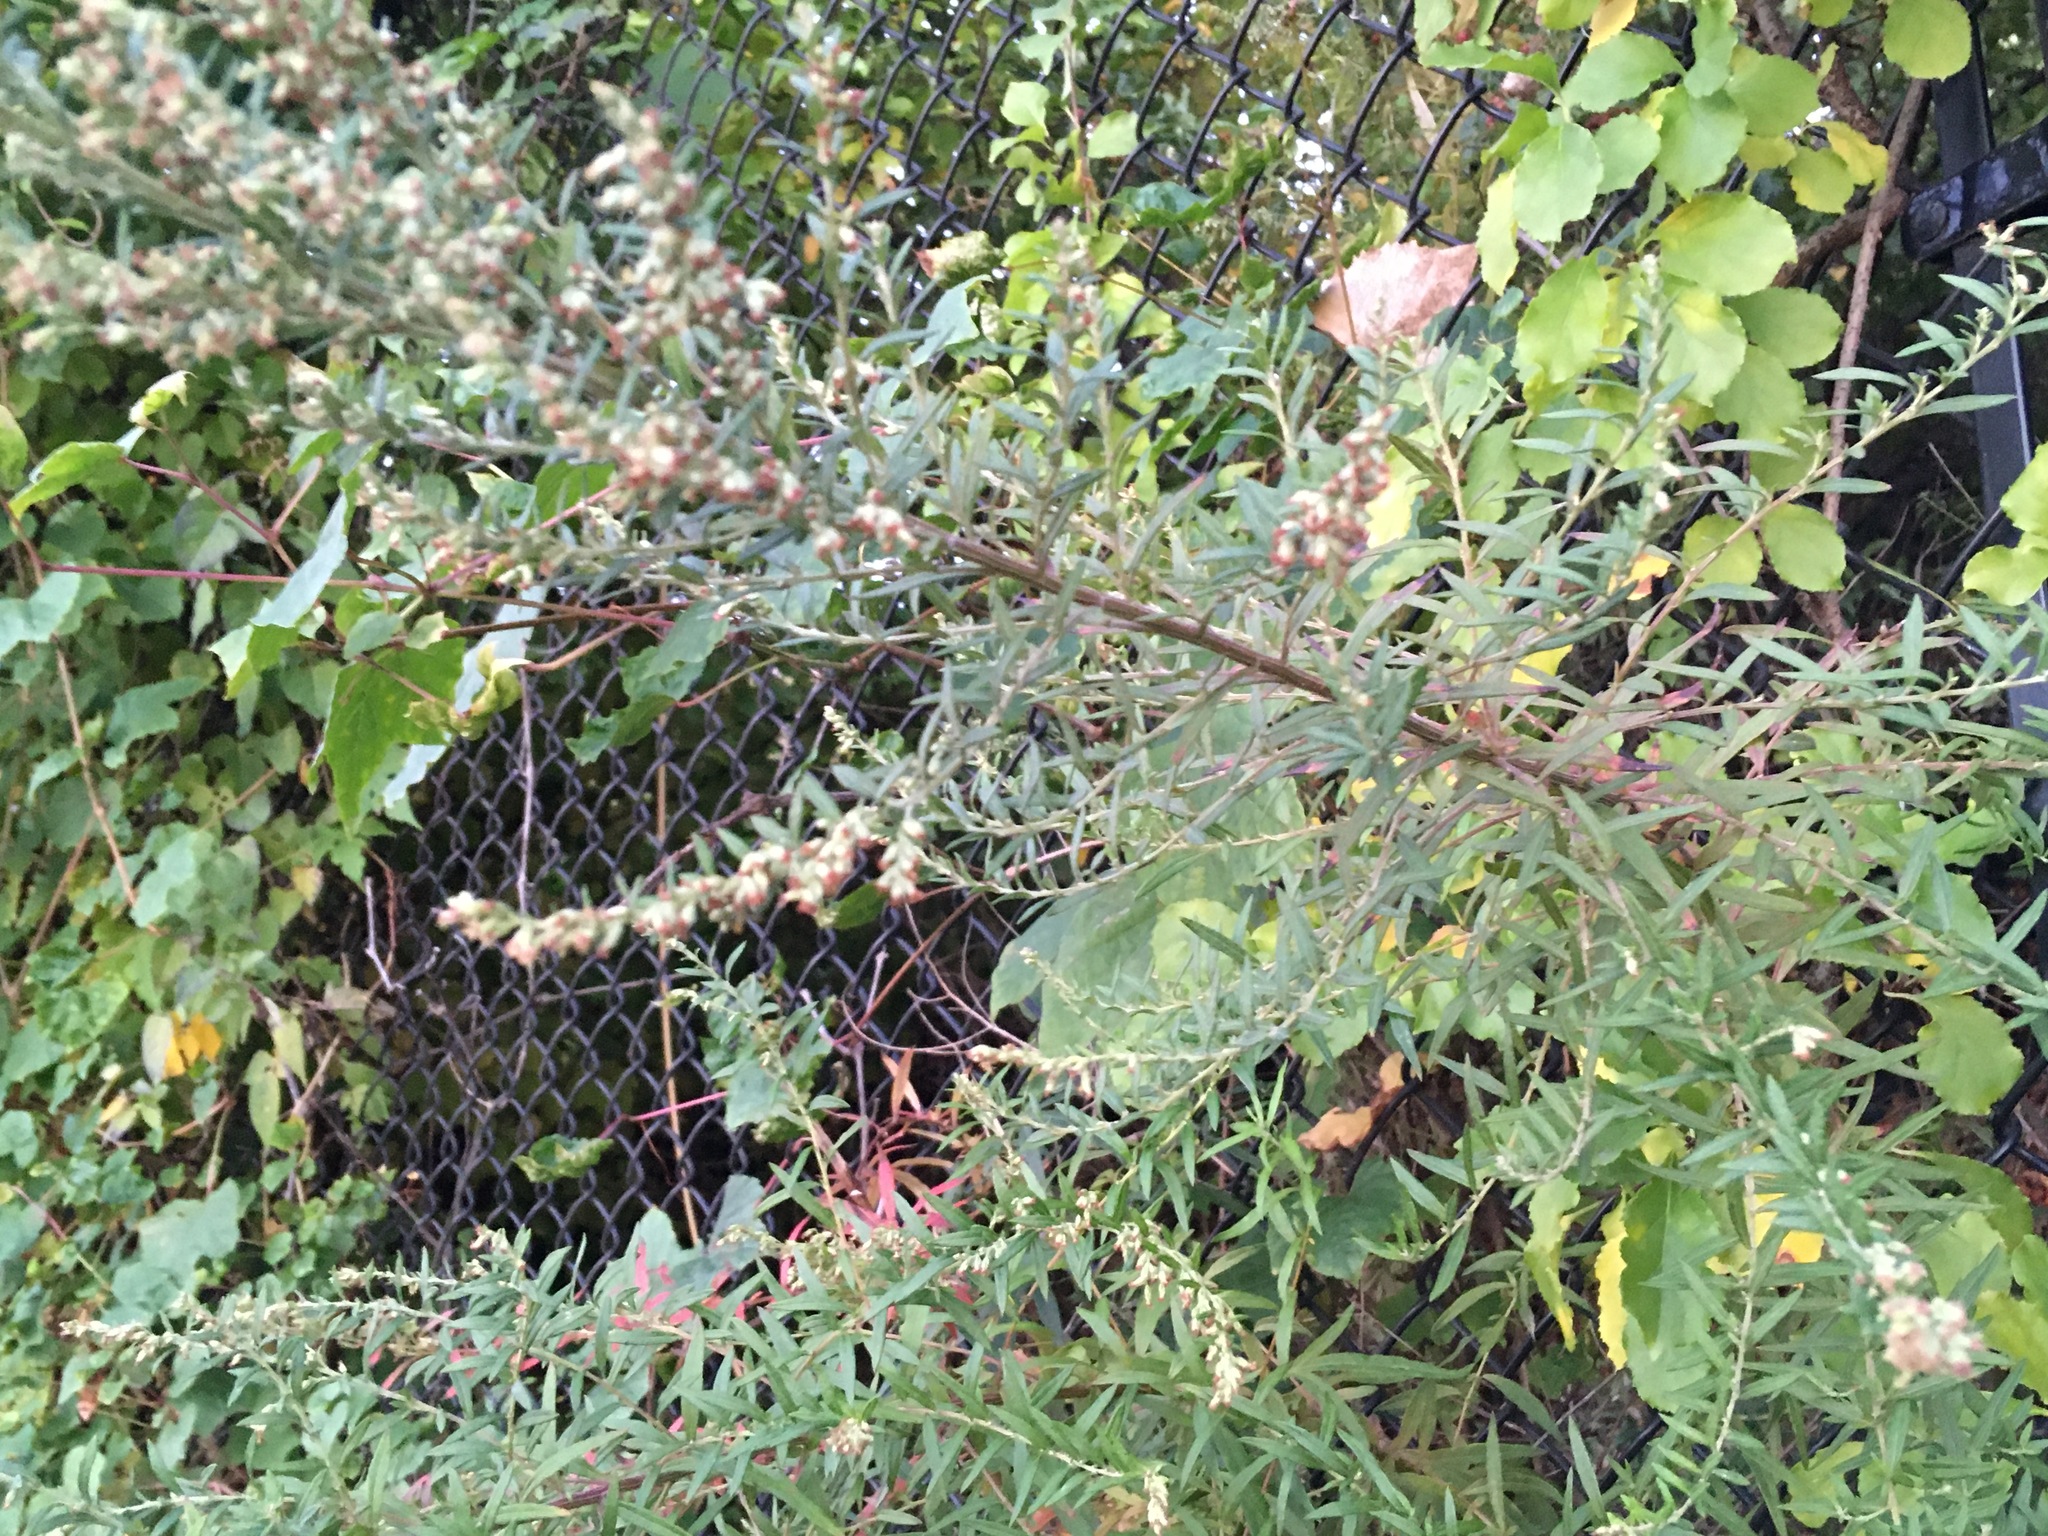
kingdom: Plantae
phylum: Tracheophyta
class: Magnoliopsida
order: Asterales
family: Asteraceae
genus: Artemisia
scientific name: Artemisia vulgaris
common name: Mugwort
